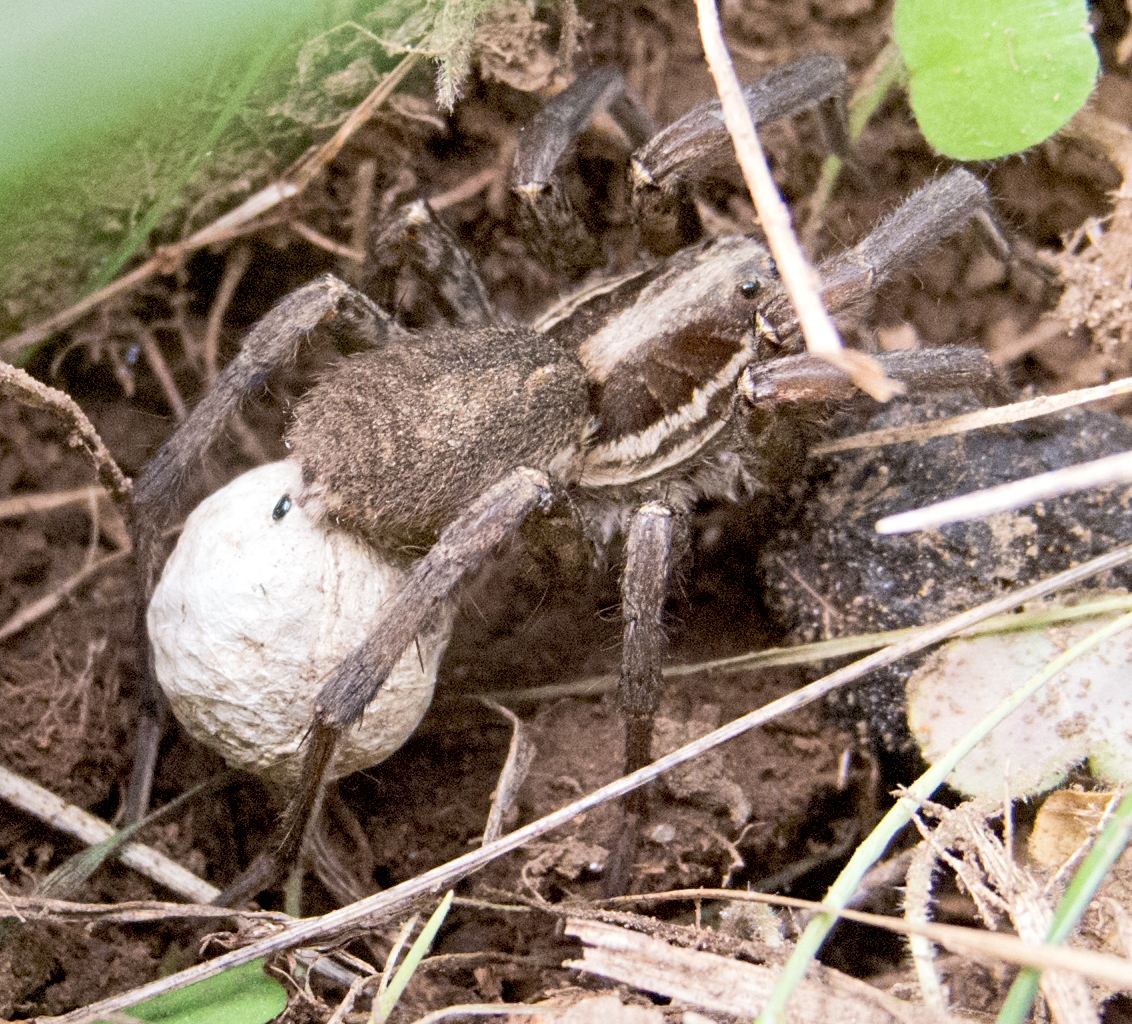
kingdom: Animalia
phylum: Arthropoda
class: Arachnida
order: Araneae
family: Lycosidae
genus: Hogna
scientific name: Hogna radiata
